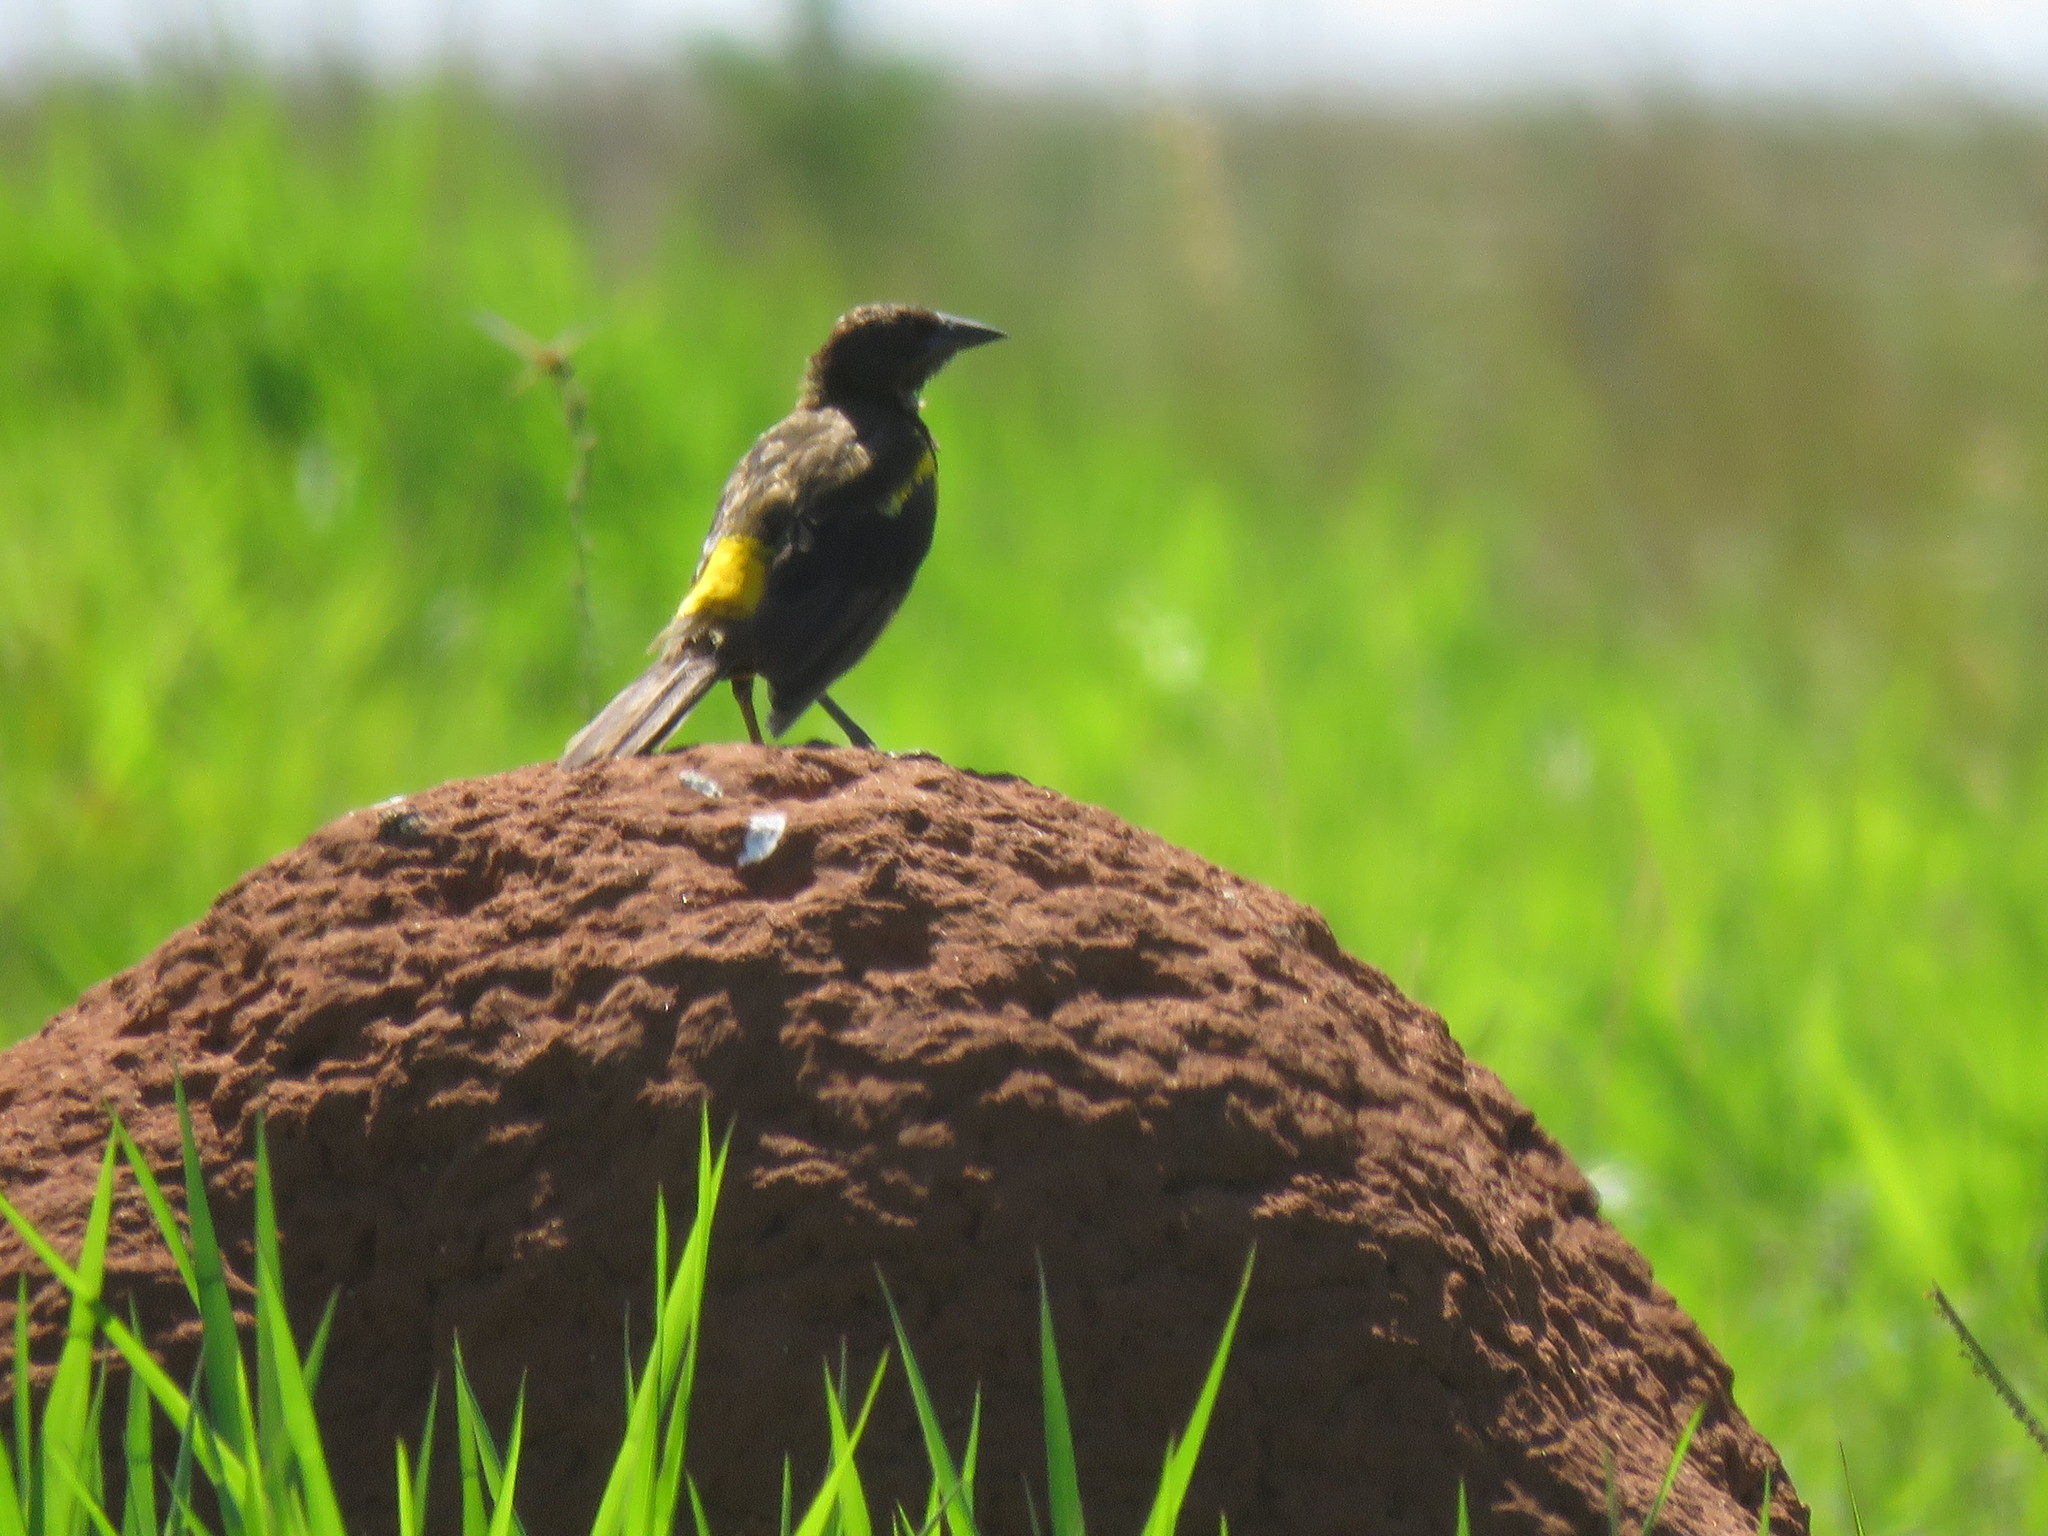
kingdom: Animalia
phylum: Chordata
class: Aves
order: Passeriformes
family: Icteridae
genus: Pseudoleistes
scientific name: Pseudoleistes guirahuro
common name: Yellow-rumped marshbird
